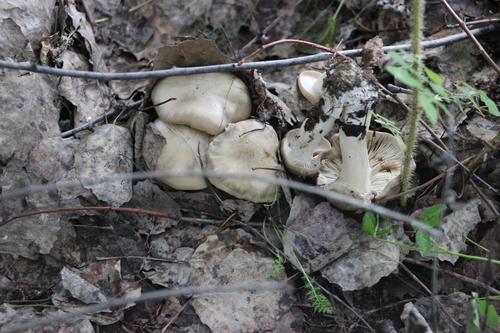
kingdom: Fungi
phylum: Basidiomycota
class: Agaricomycetes
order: Agaricales
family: Lyophyllaceae
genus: Lyophyllum
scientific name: Lyophyllum decastes
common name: Clustered domecap
